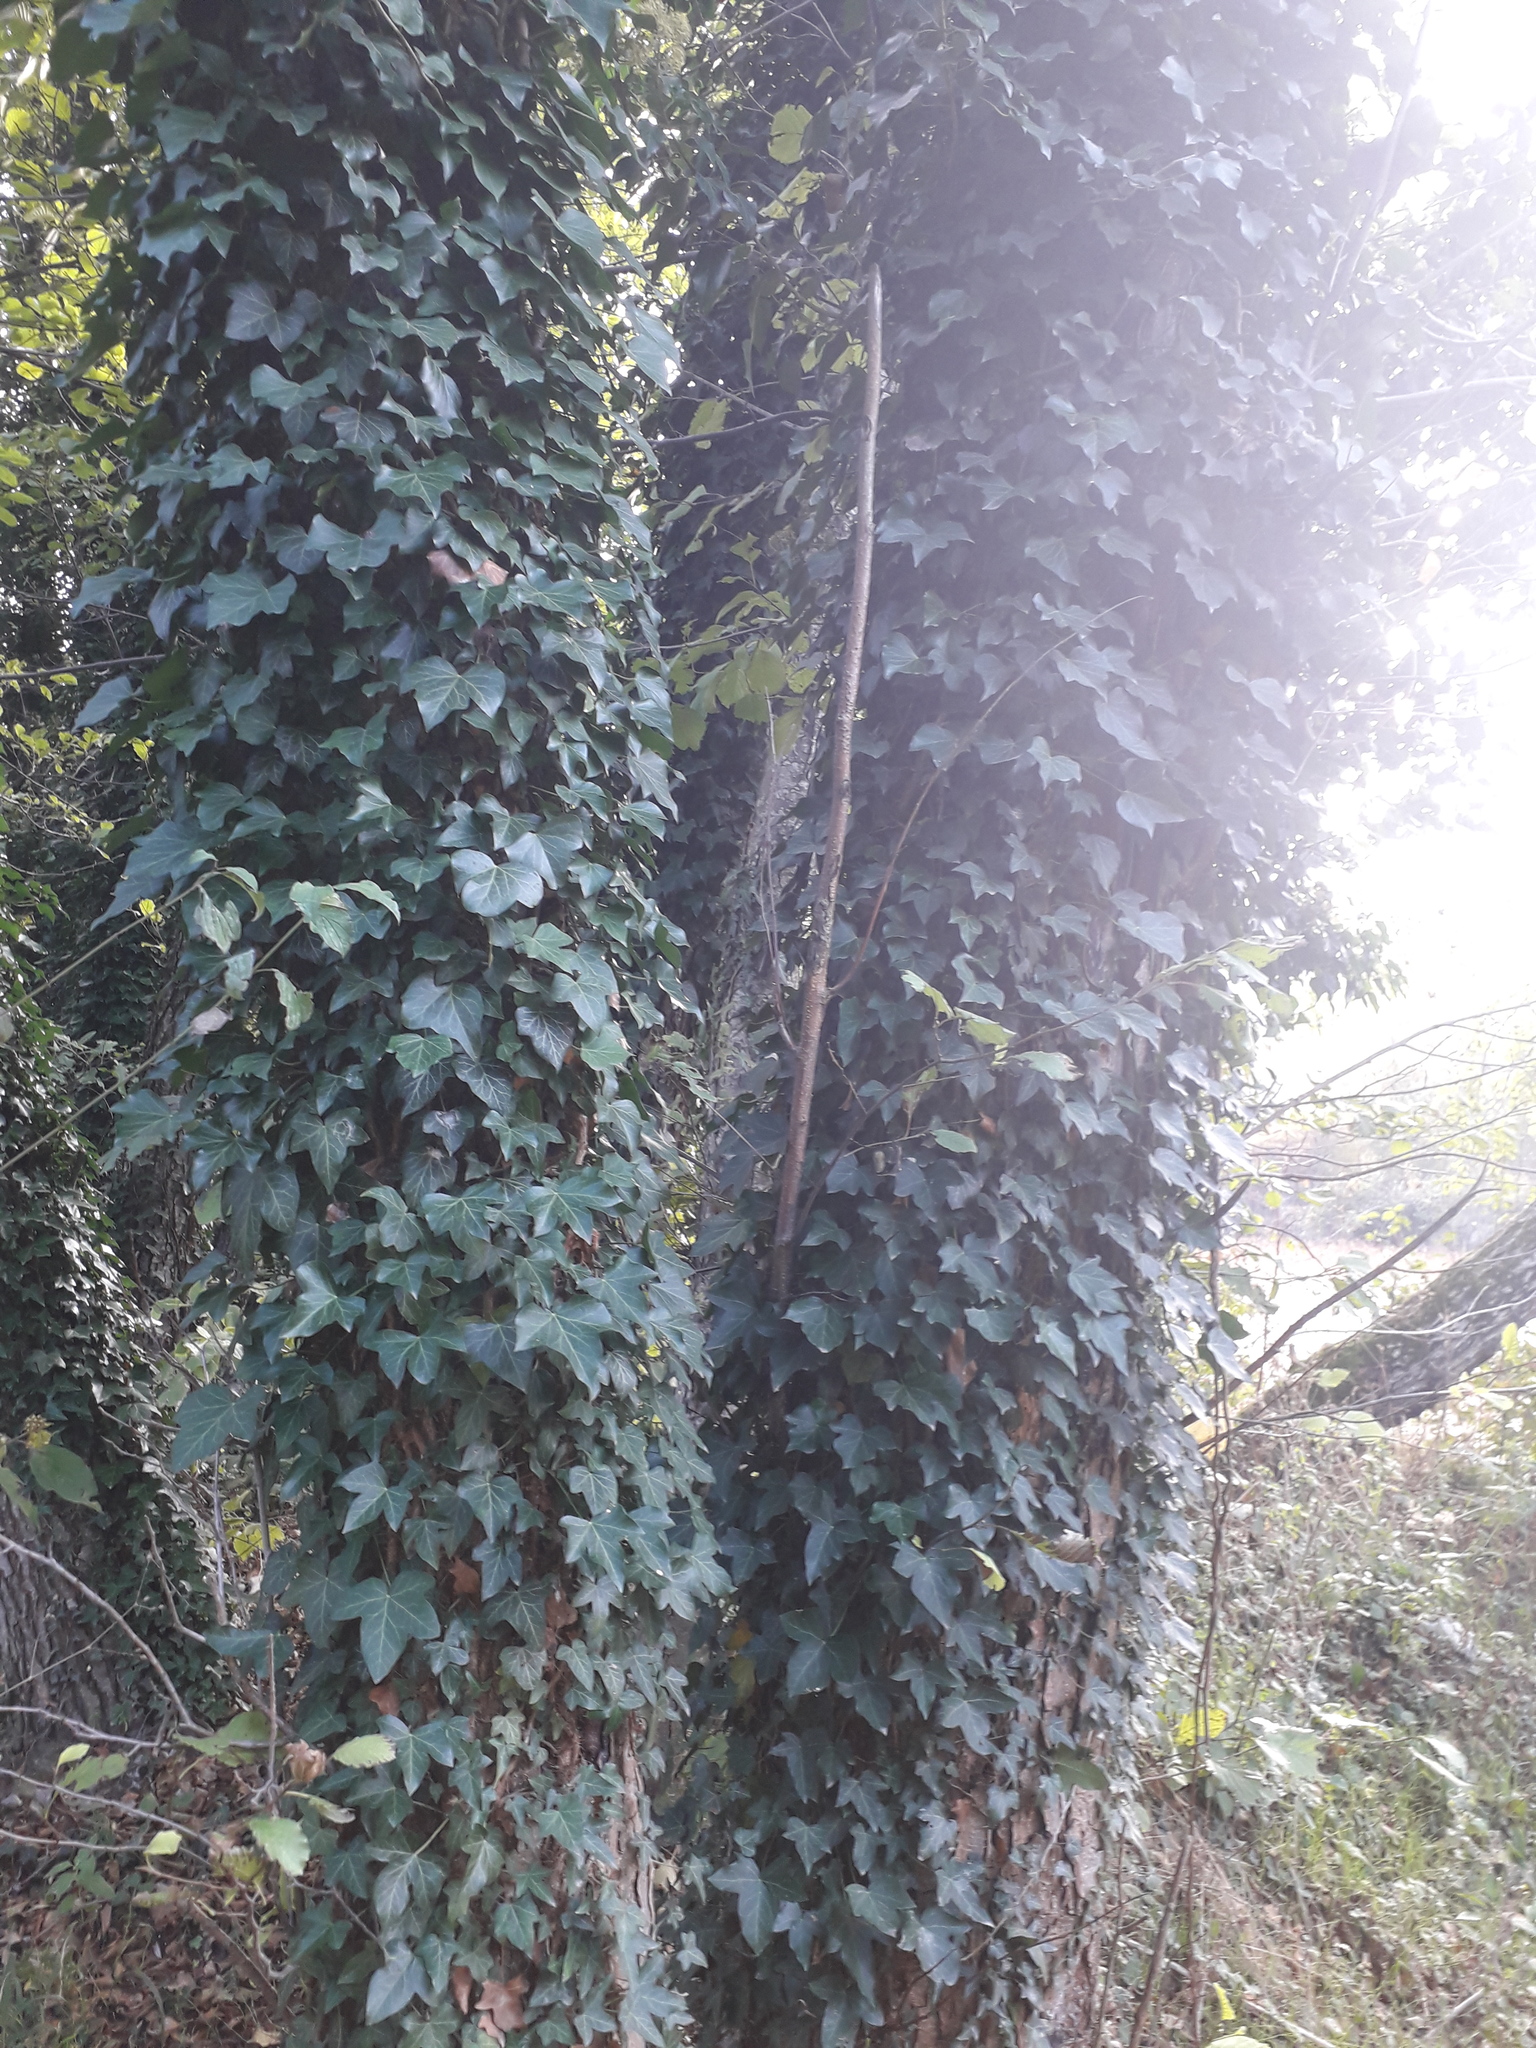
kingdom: Plantae
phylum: Tracheophyta
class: Magnoliopsida
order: Apiales
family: Araliaceae
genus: Hedera
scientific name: Hedera helix
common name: Ivy
